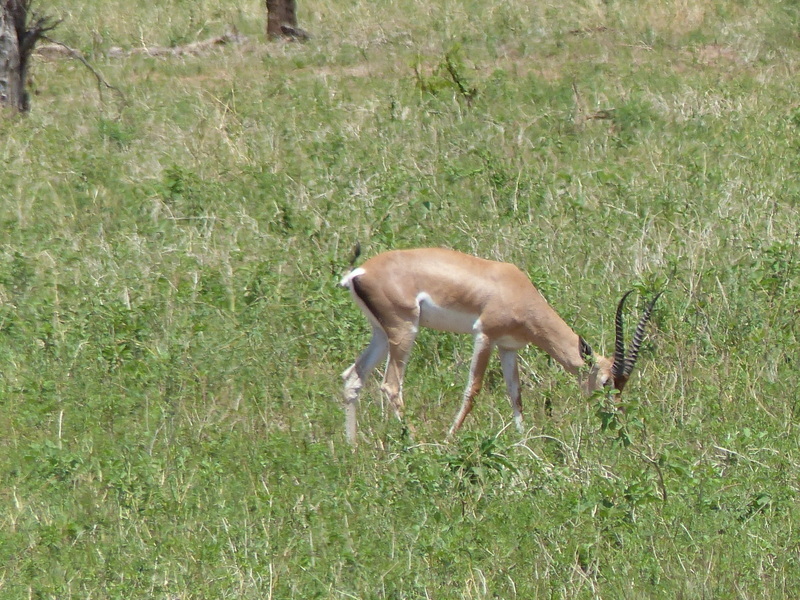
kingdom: Animalia
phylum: Chordata
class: Mammalia
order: Artiodactyla
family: Bovidae
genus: Nanger
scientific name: Nanger granti
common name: Grant's gazelle
